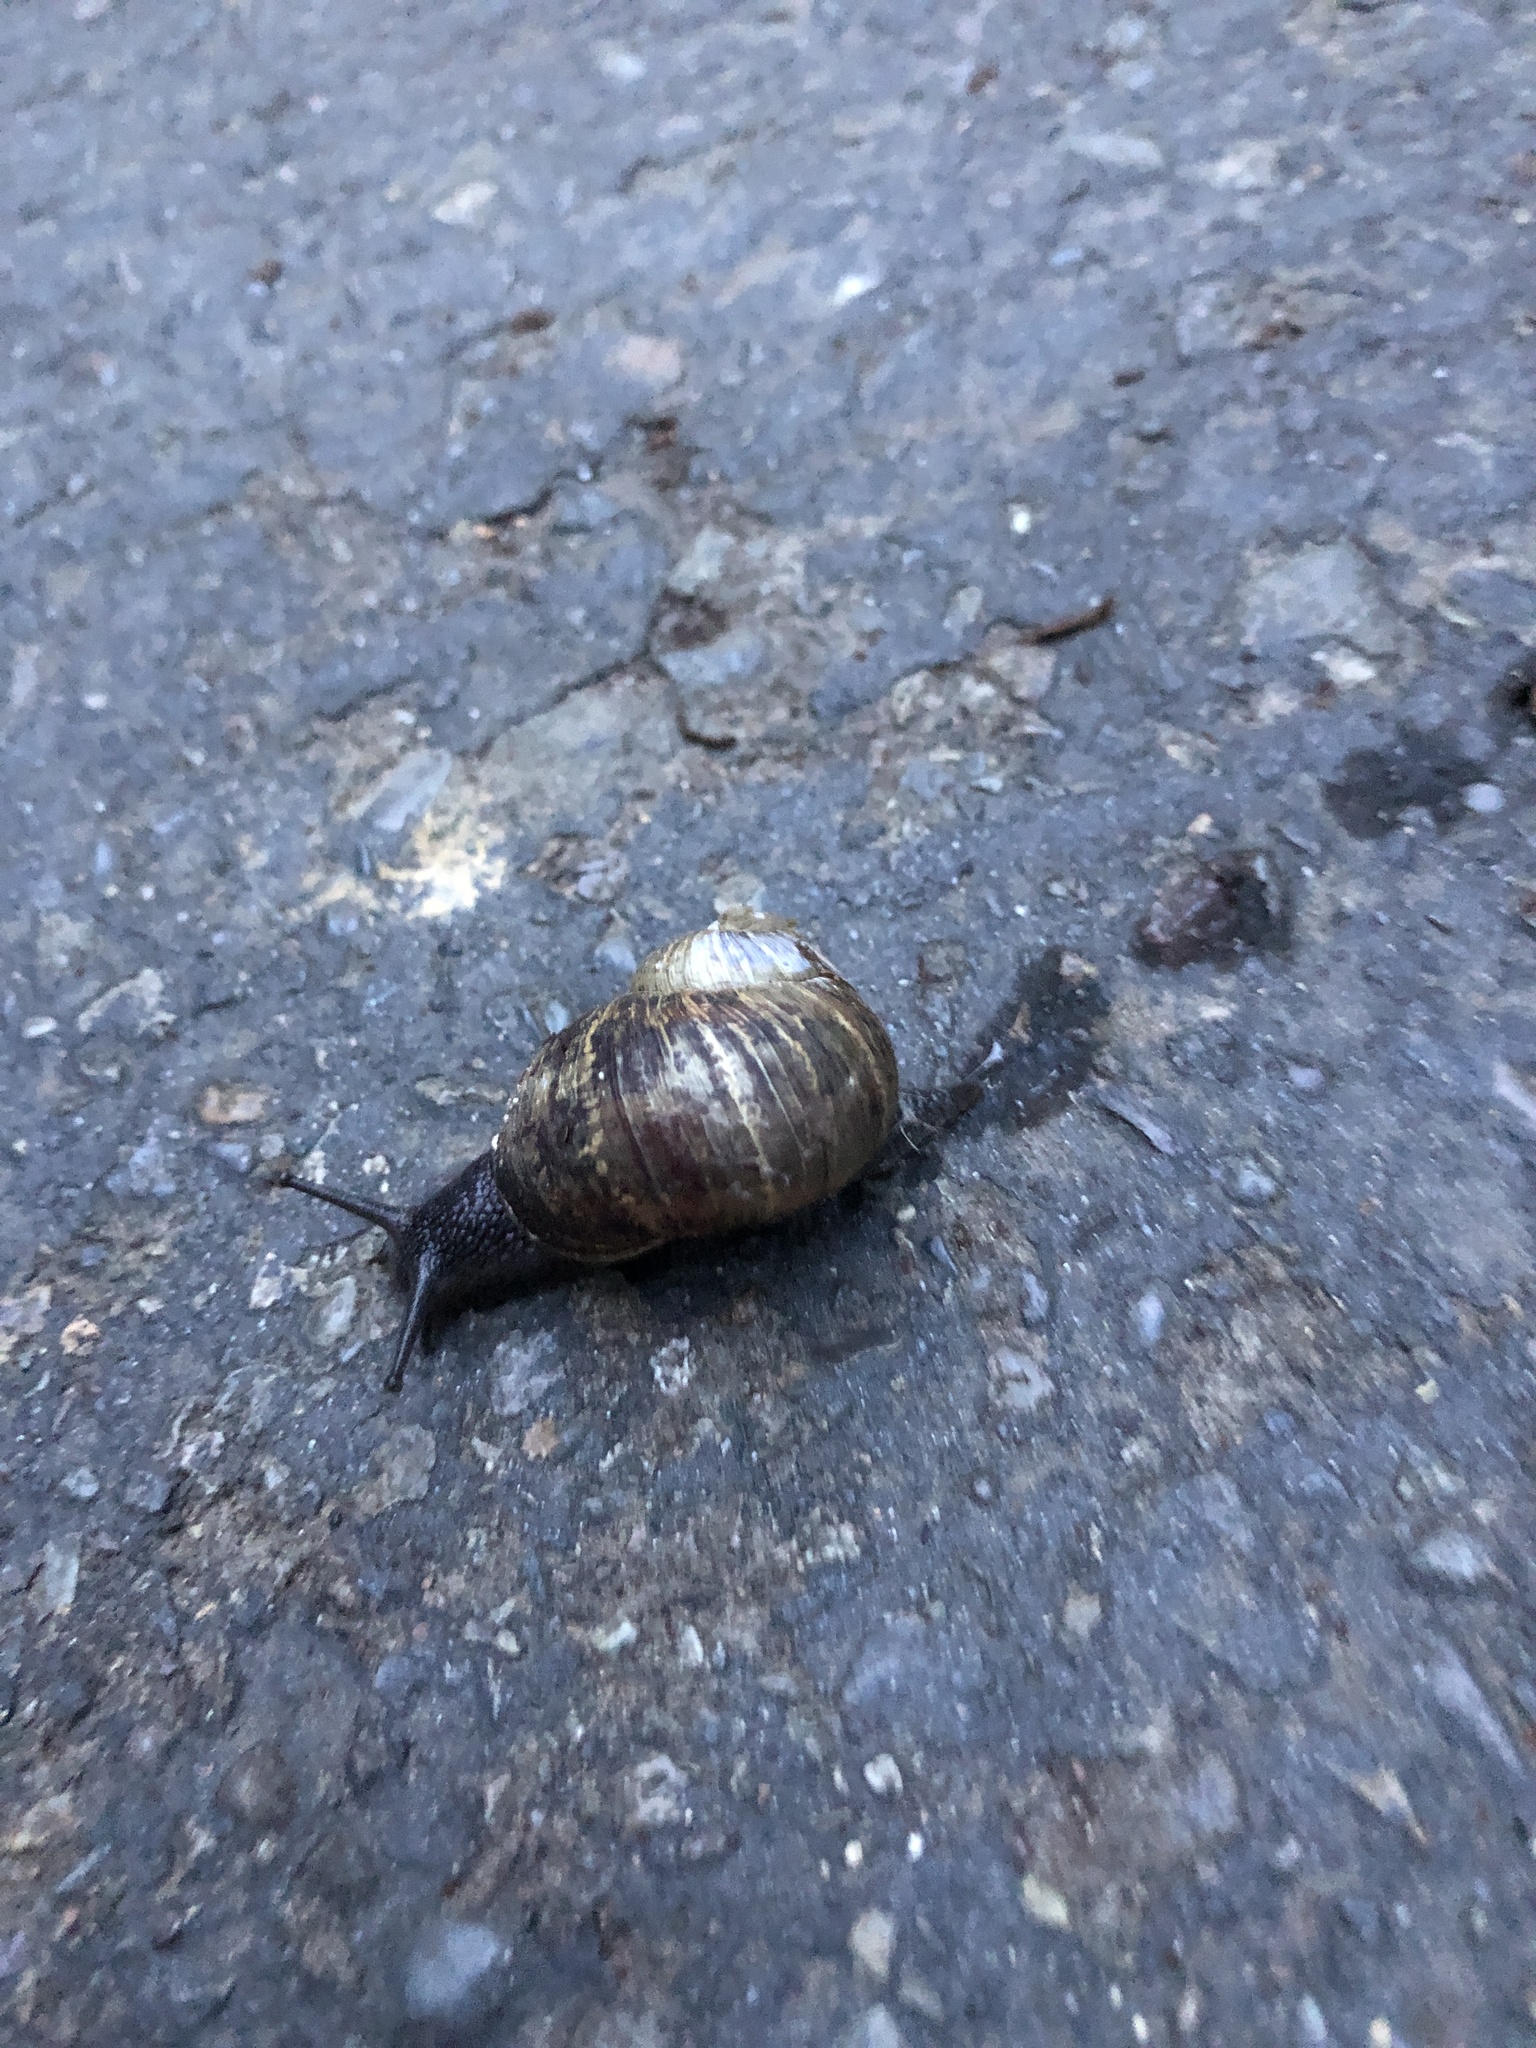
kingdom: Animalia
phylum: Mollusca
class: Gastropoda
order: Stylommatophora
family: Helicidae
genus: Cornu
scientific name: Cornu aspersum
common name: Brown garden snail
